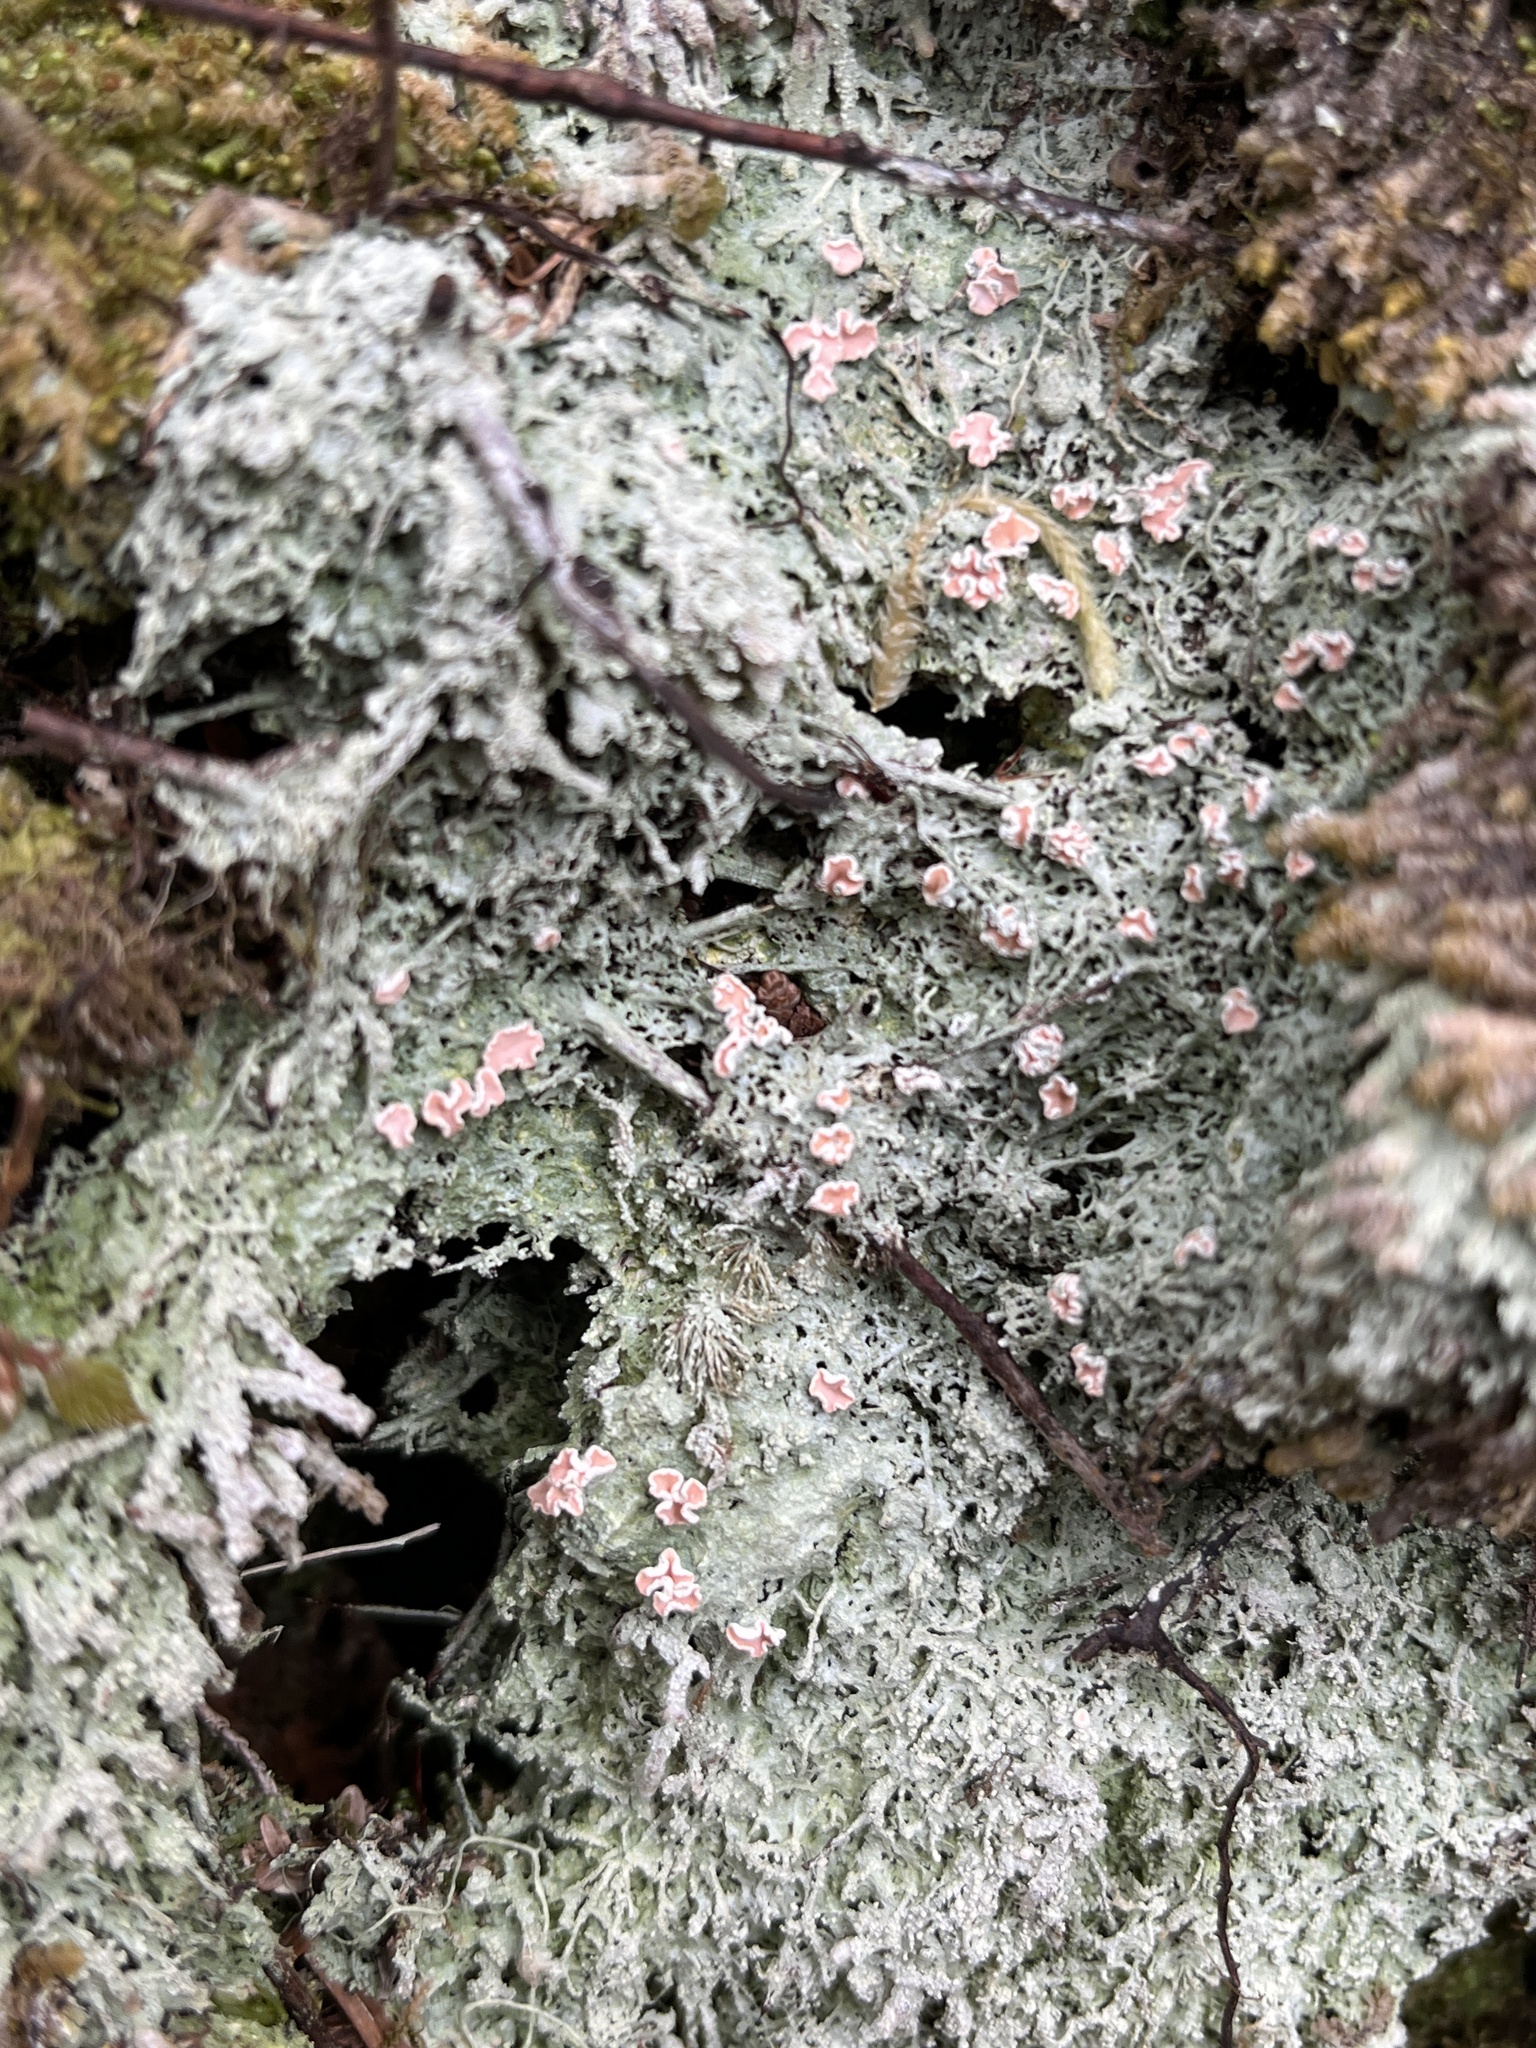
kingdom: Fungi
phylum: Ascomycota
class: Lecanoromycetes
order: Pertusariales
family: Icmadophilaceae
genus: Icmadophila
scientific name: Icmadophila ericetorum
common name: Candy lichen
